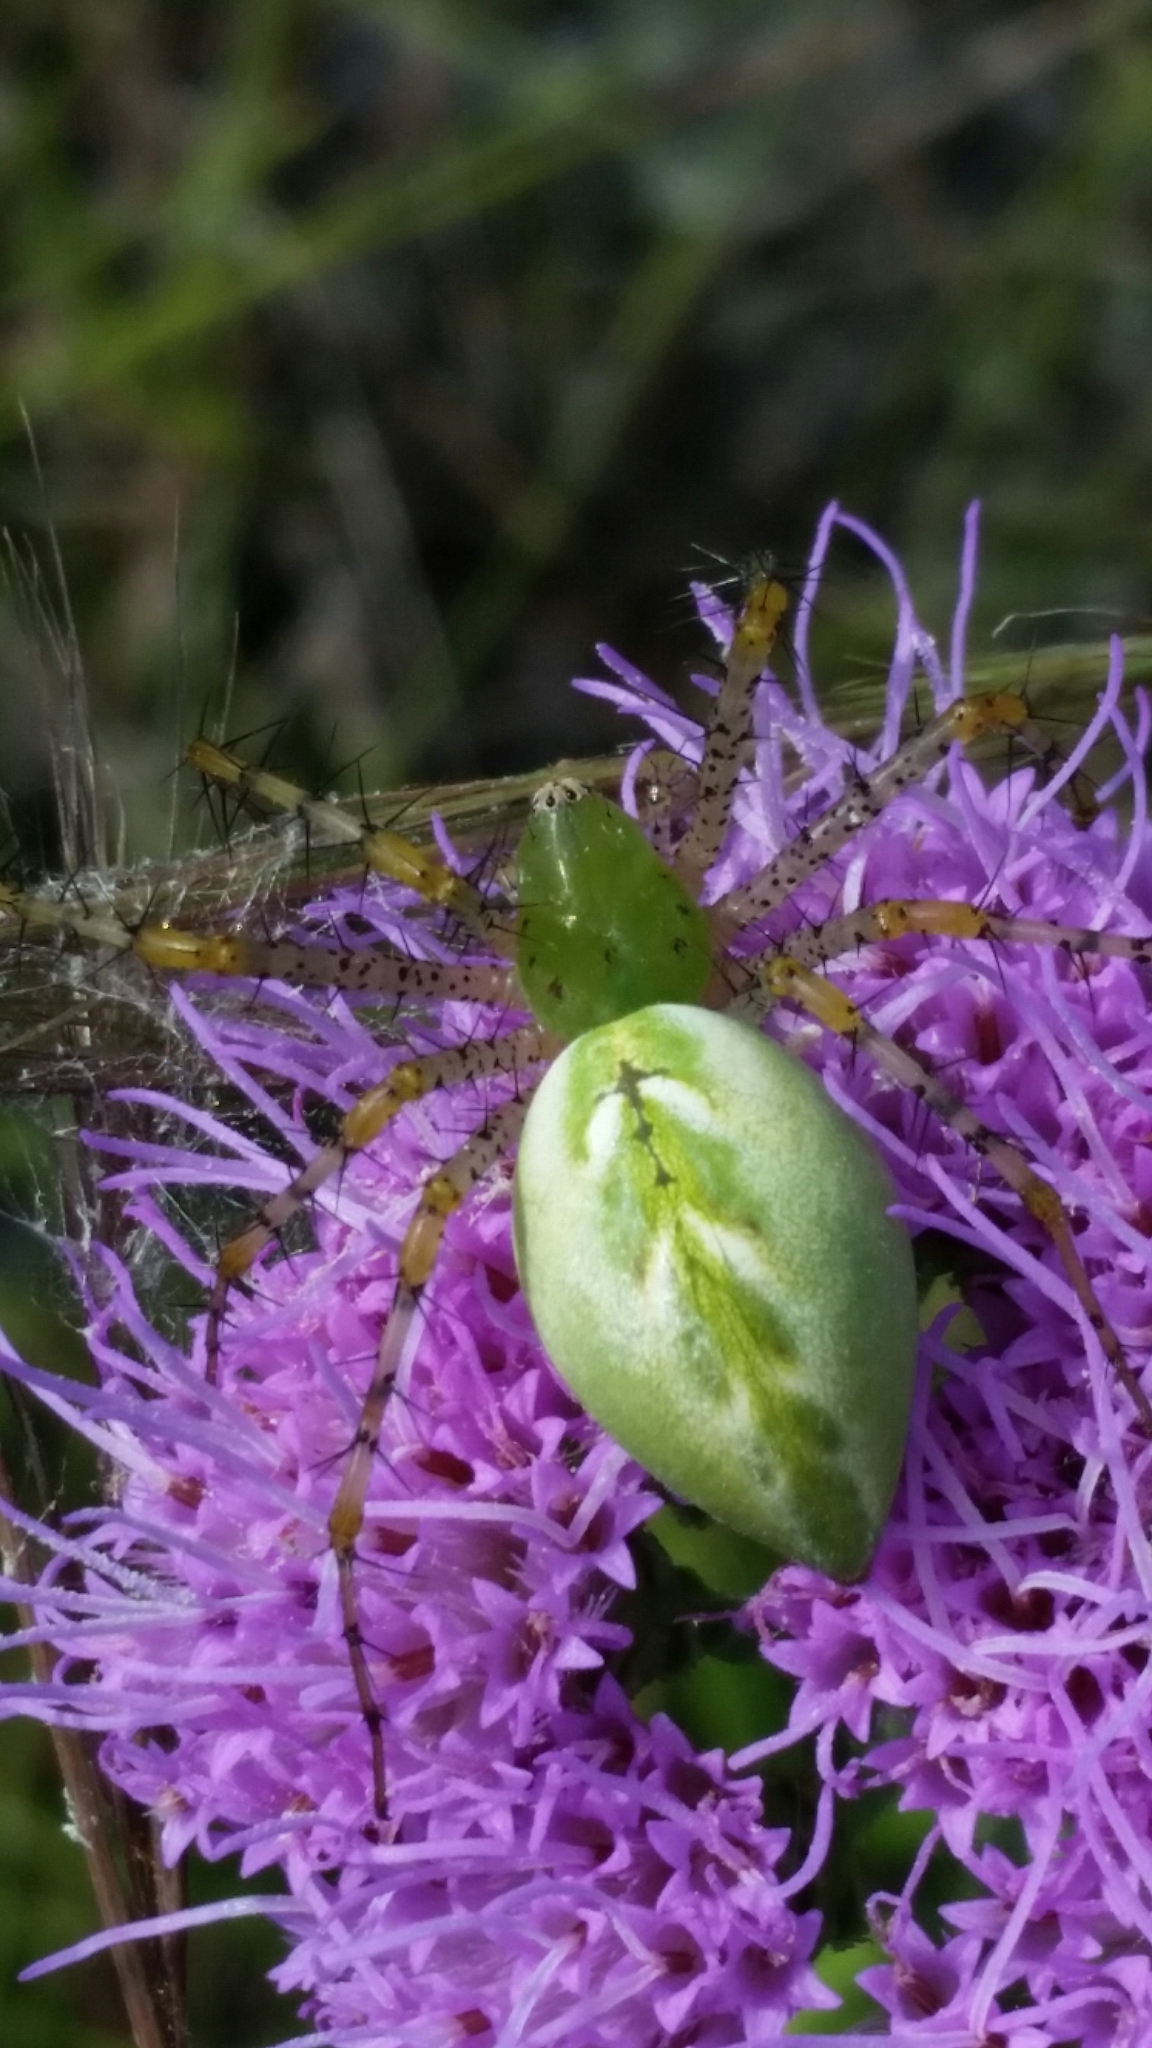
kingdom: Animalia
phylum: Arthropoda
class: Arachnida
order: Araneae
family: Oxyopidae
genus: Peucetia
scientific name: Peucetia viridans
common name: Lynx spiders
